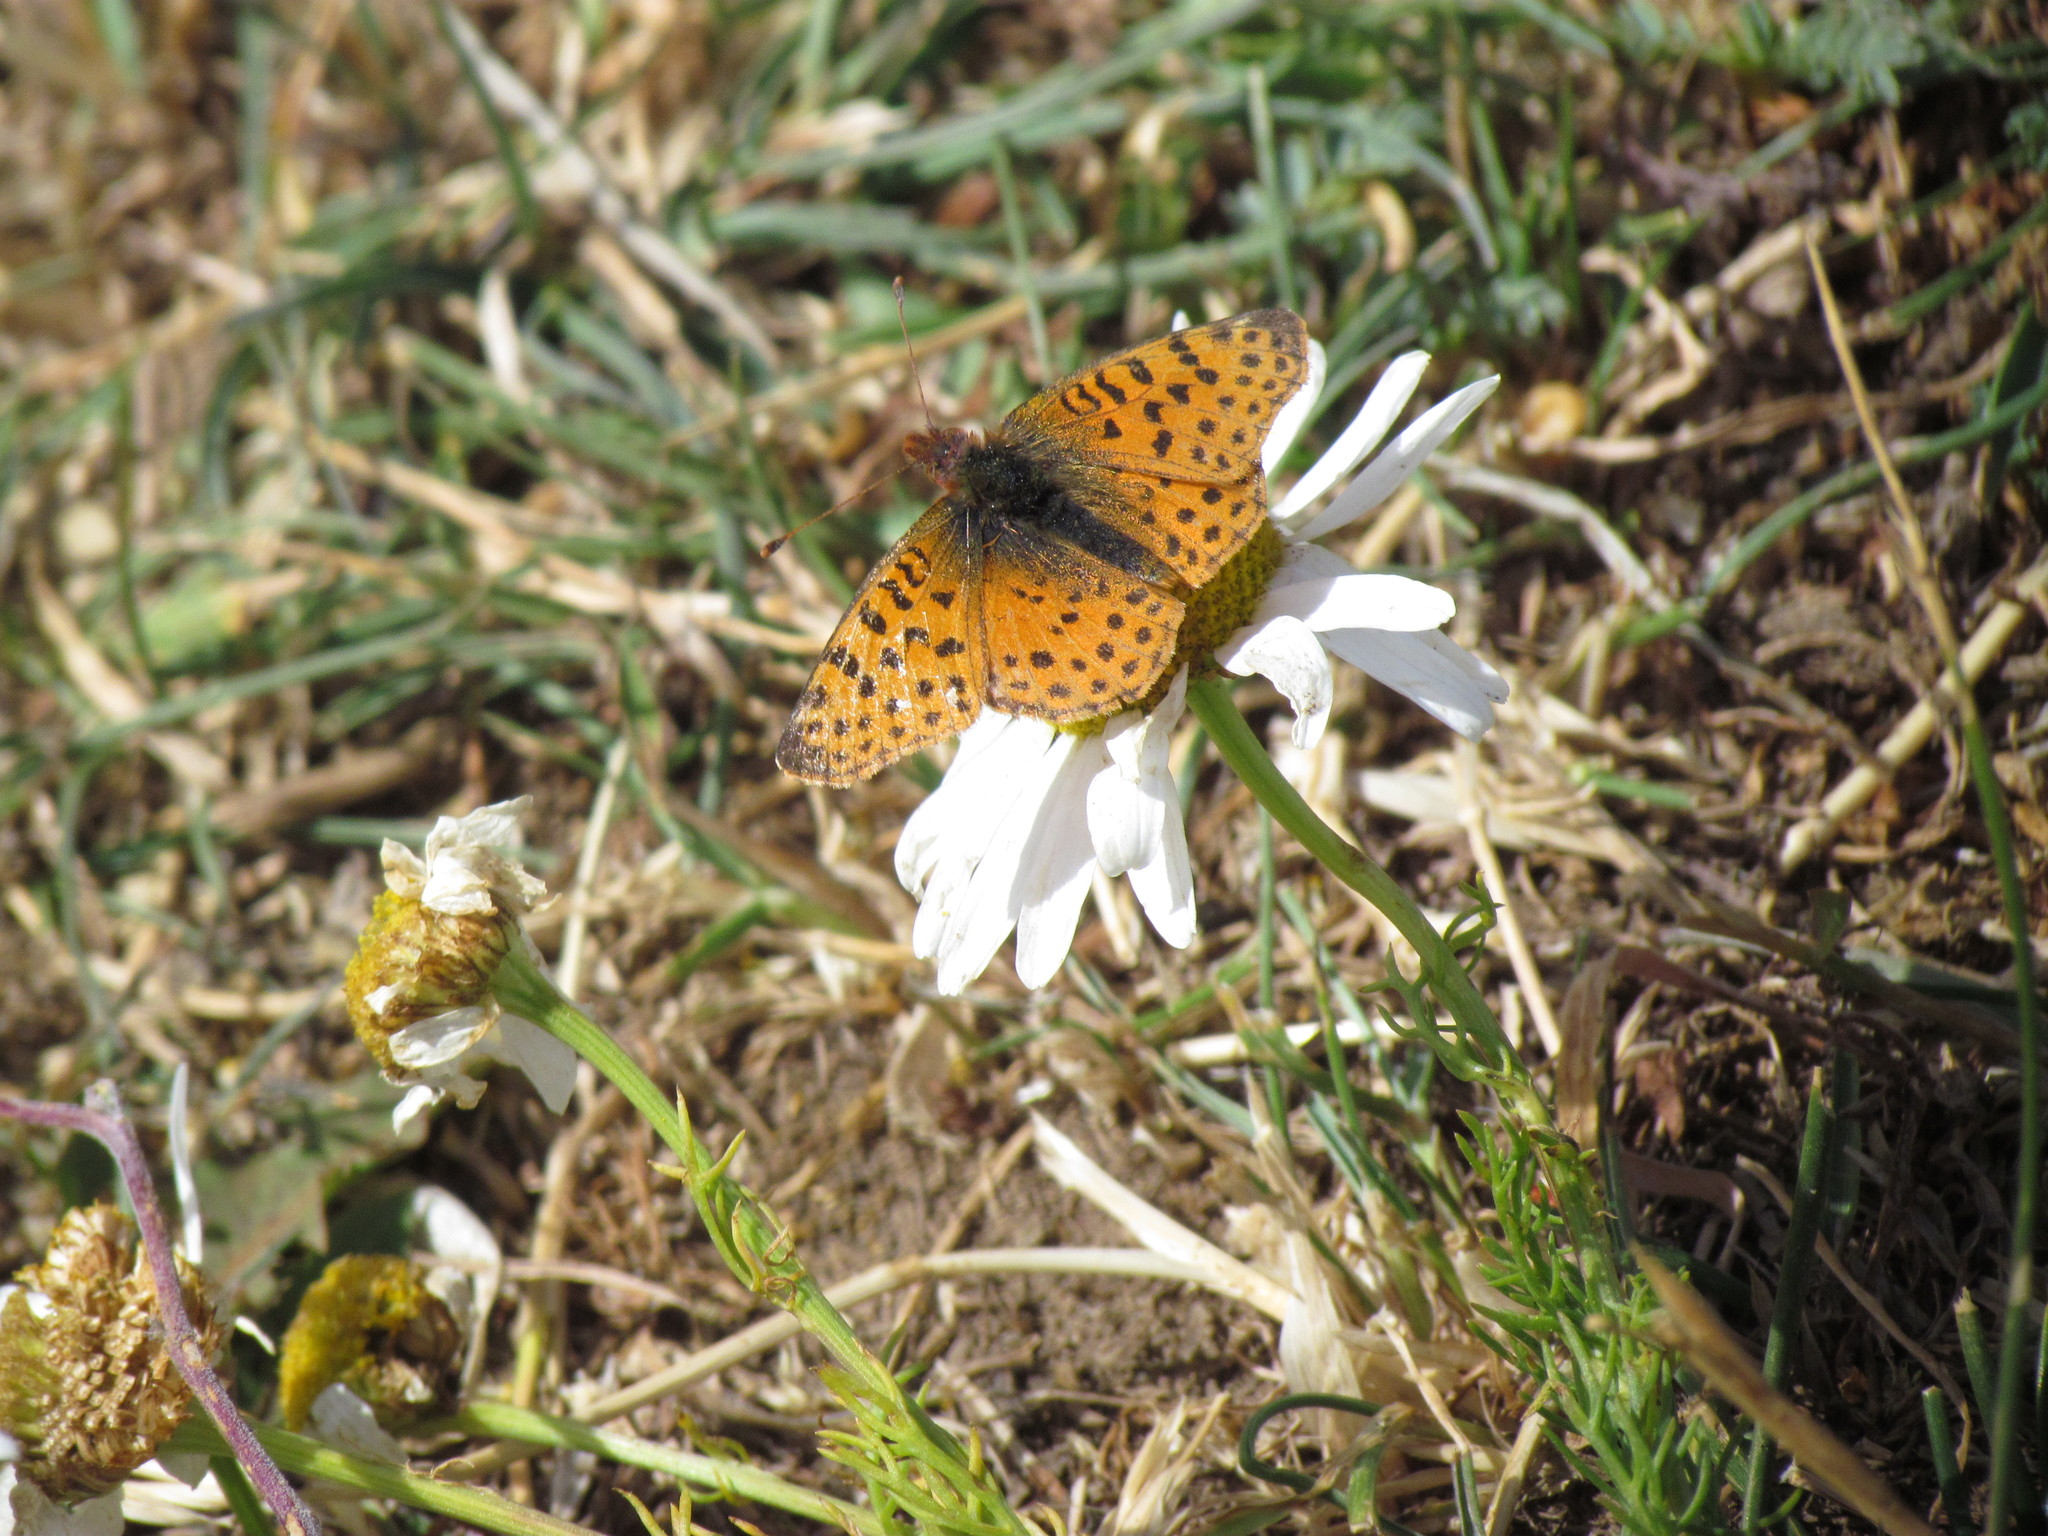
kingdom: Animalia
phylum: Arthropoda
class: Insecta
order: Lepidoptera
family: Nymphalidae
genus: Issoria
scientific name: Issoria Yramea cytheris
